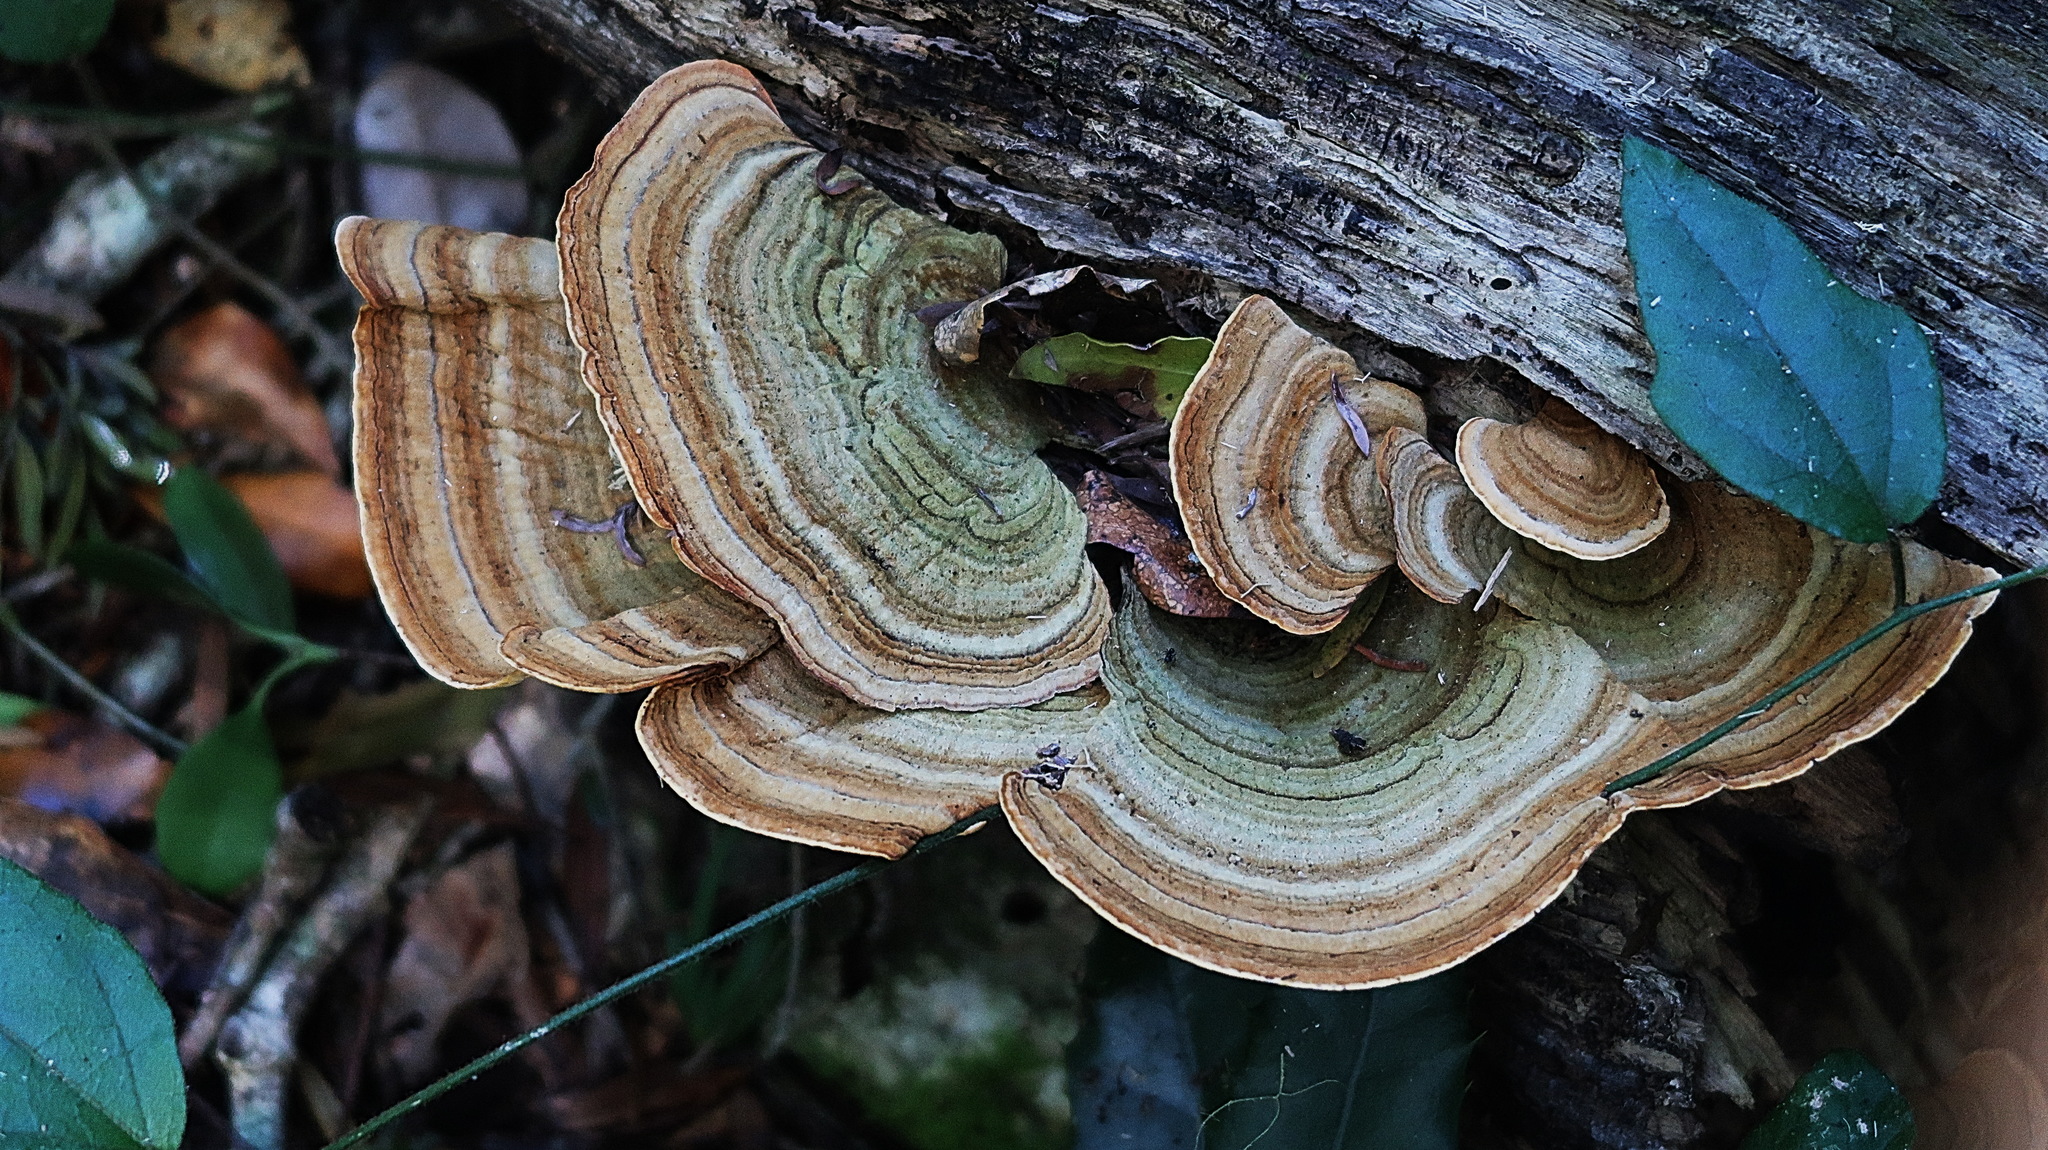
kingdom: Fungi
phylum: Basidiomycota
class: Agaricomycetes
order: Russulales
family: Stereaceae
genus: Stereum
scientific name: Stereum versicolor
